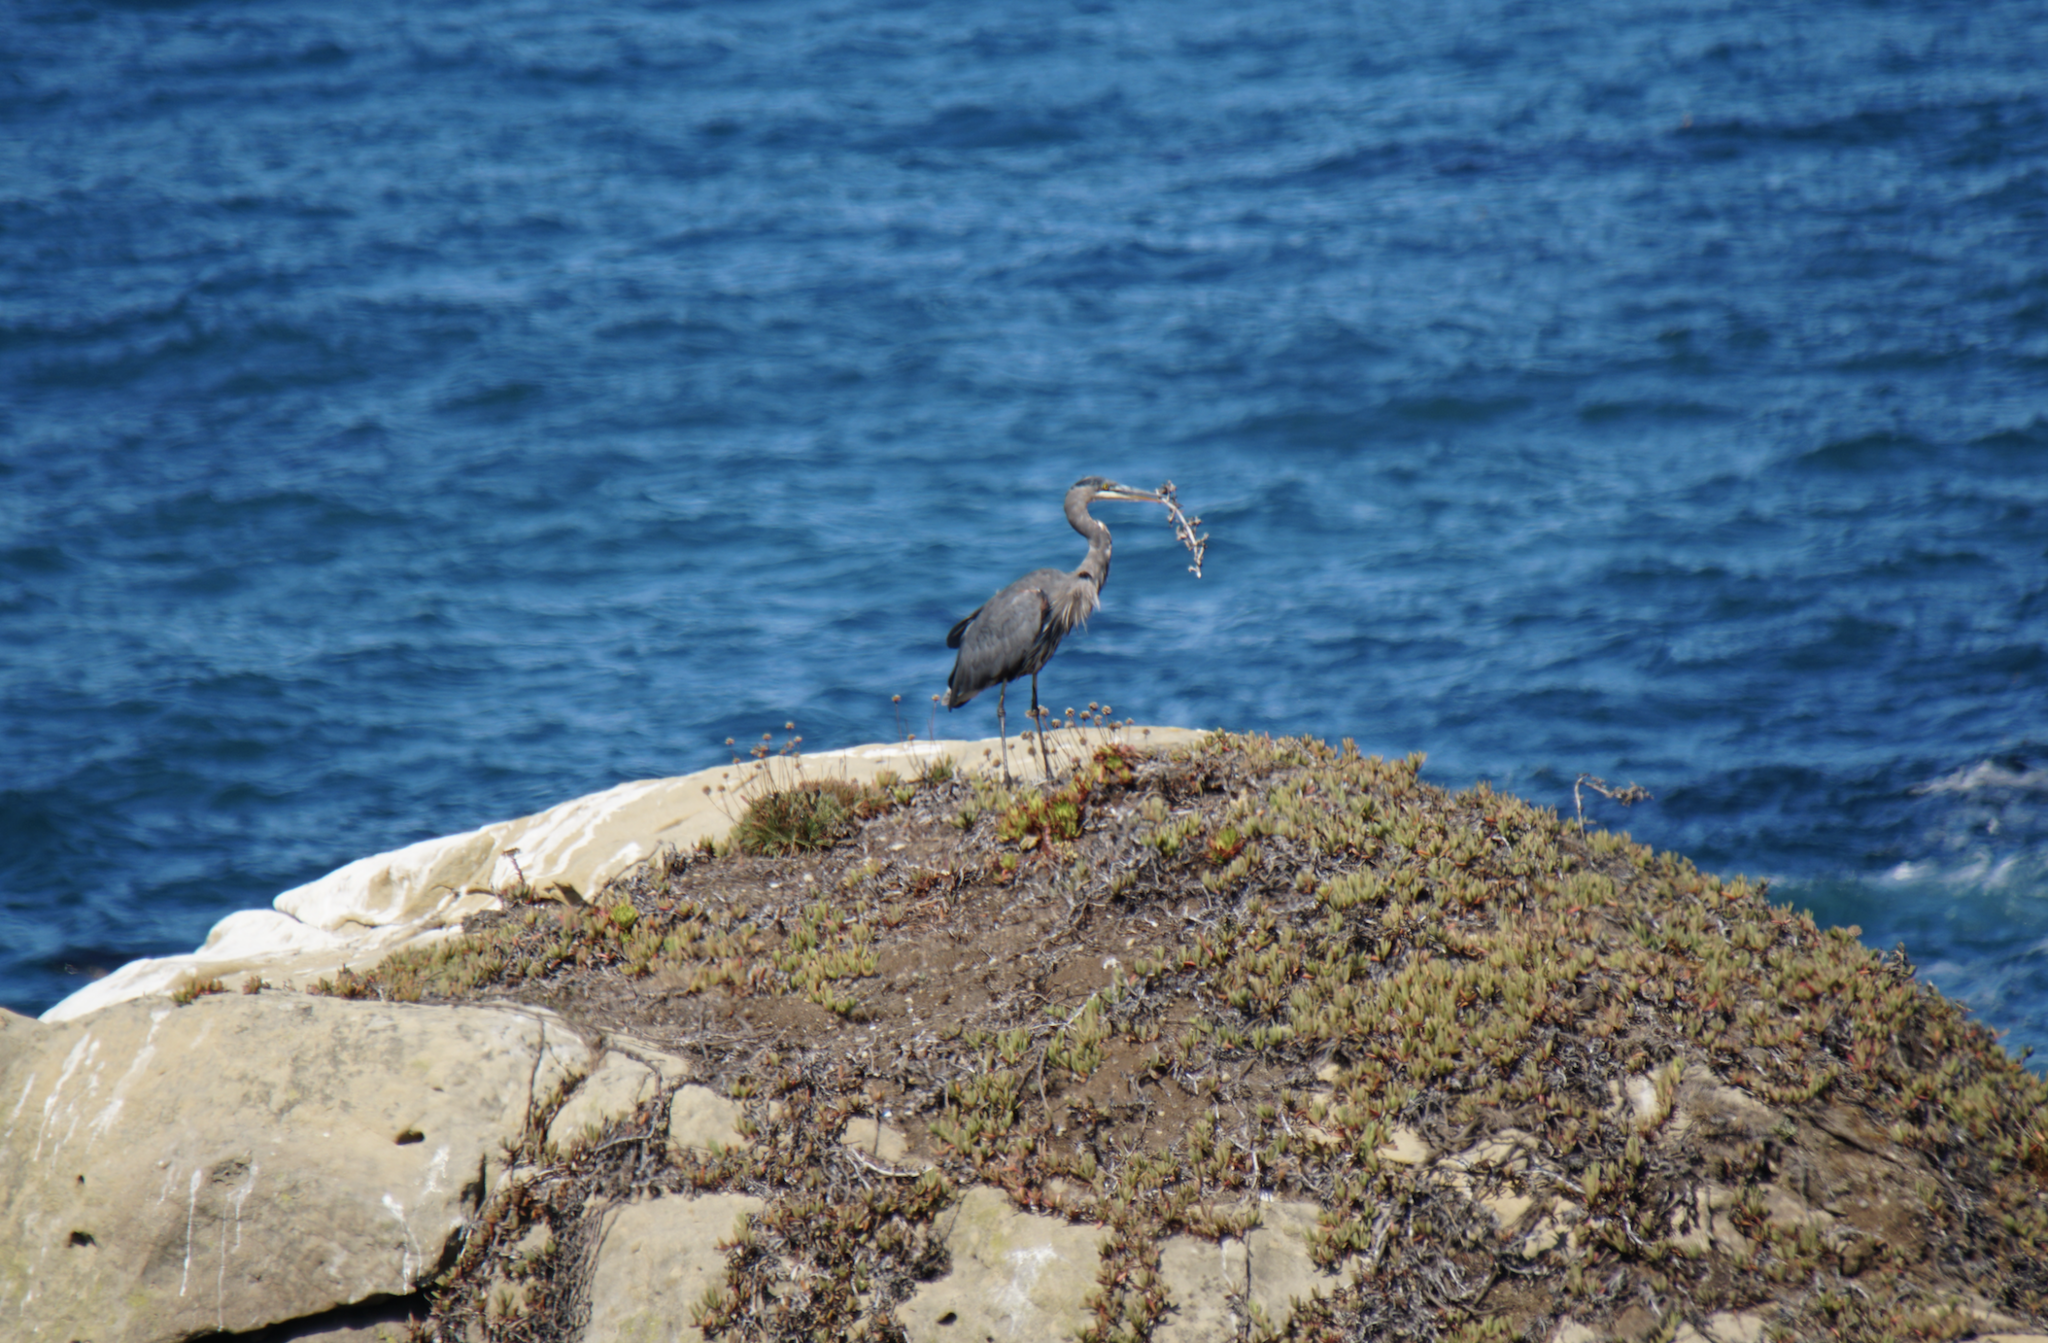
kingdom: Animalia
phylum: Chordata
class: Aves
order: Pelecaniformes
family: Ardeidae
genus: Ardea
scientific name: Ardea herodias
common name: Great blue heron
